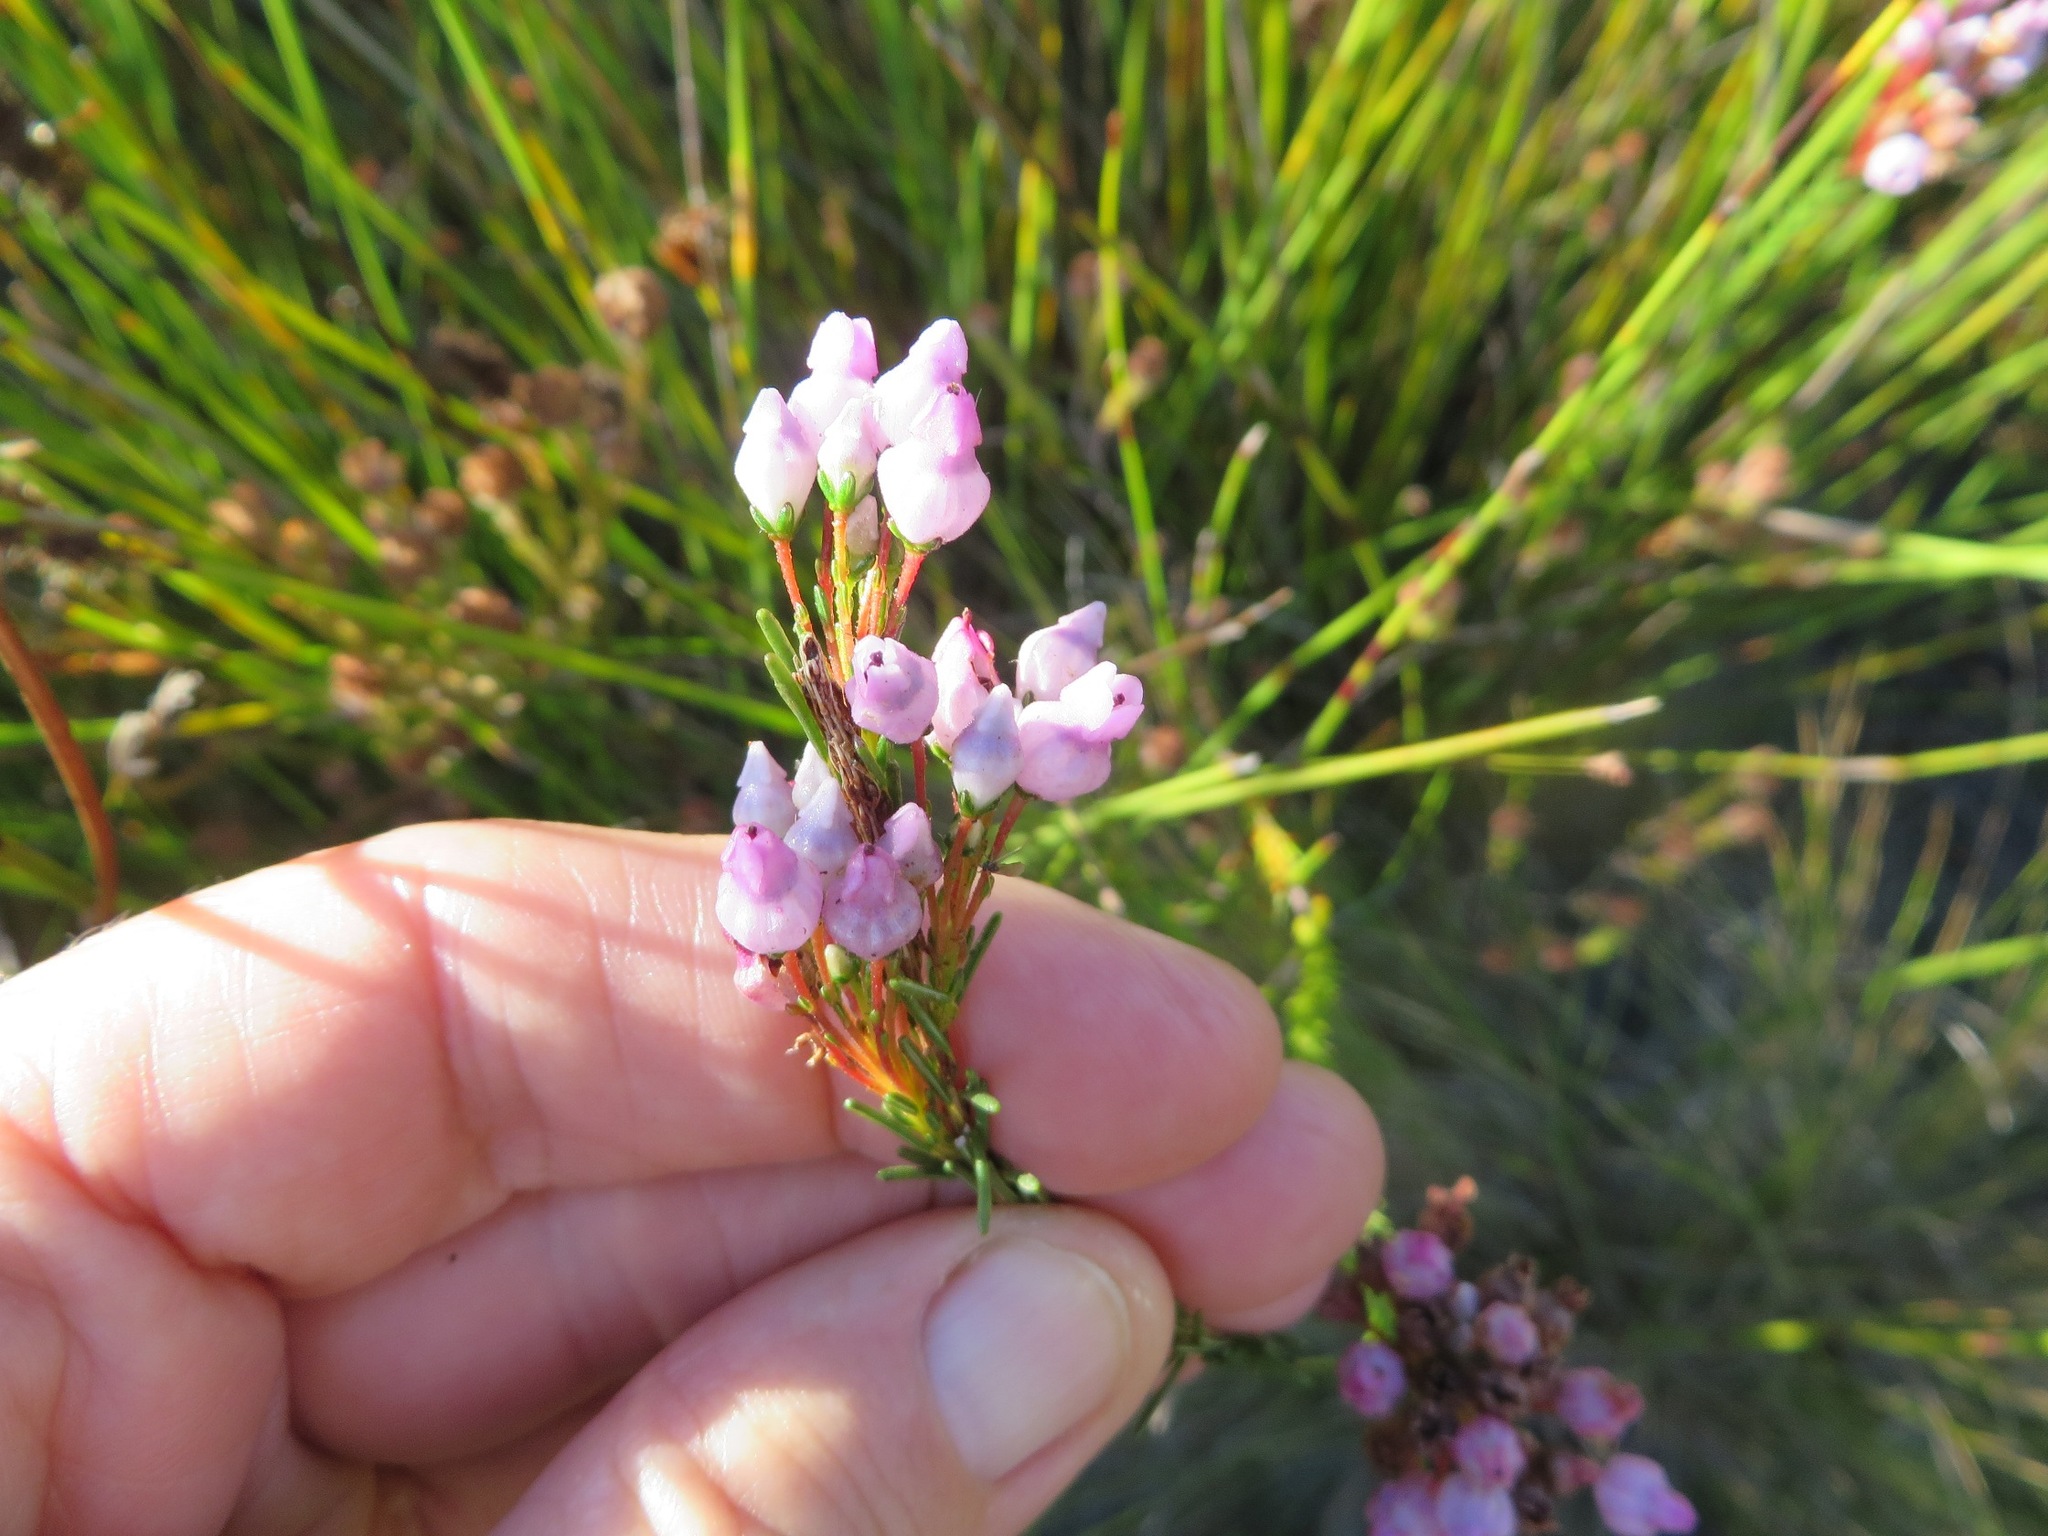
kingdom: Plantae
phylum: Tracheophyta
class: Magnoliopsida
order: Ericales
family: Ericaceae
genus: Erica
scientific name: Erica obliqua
